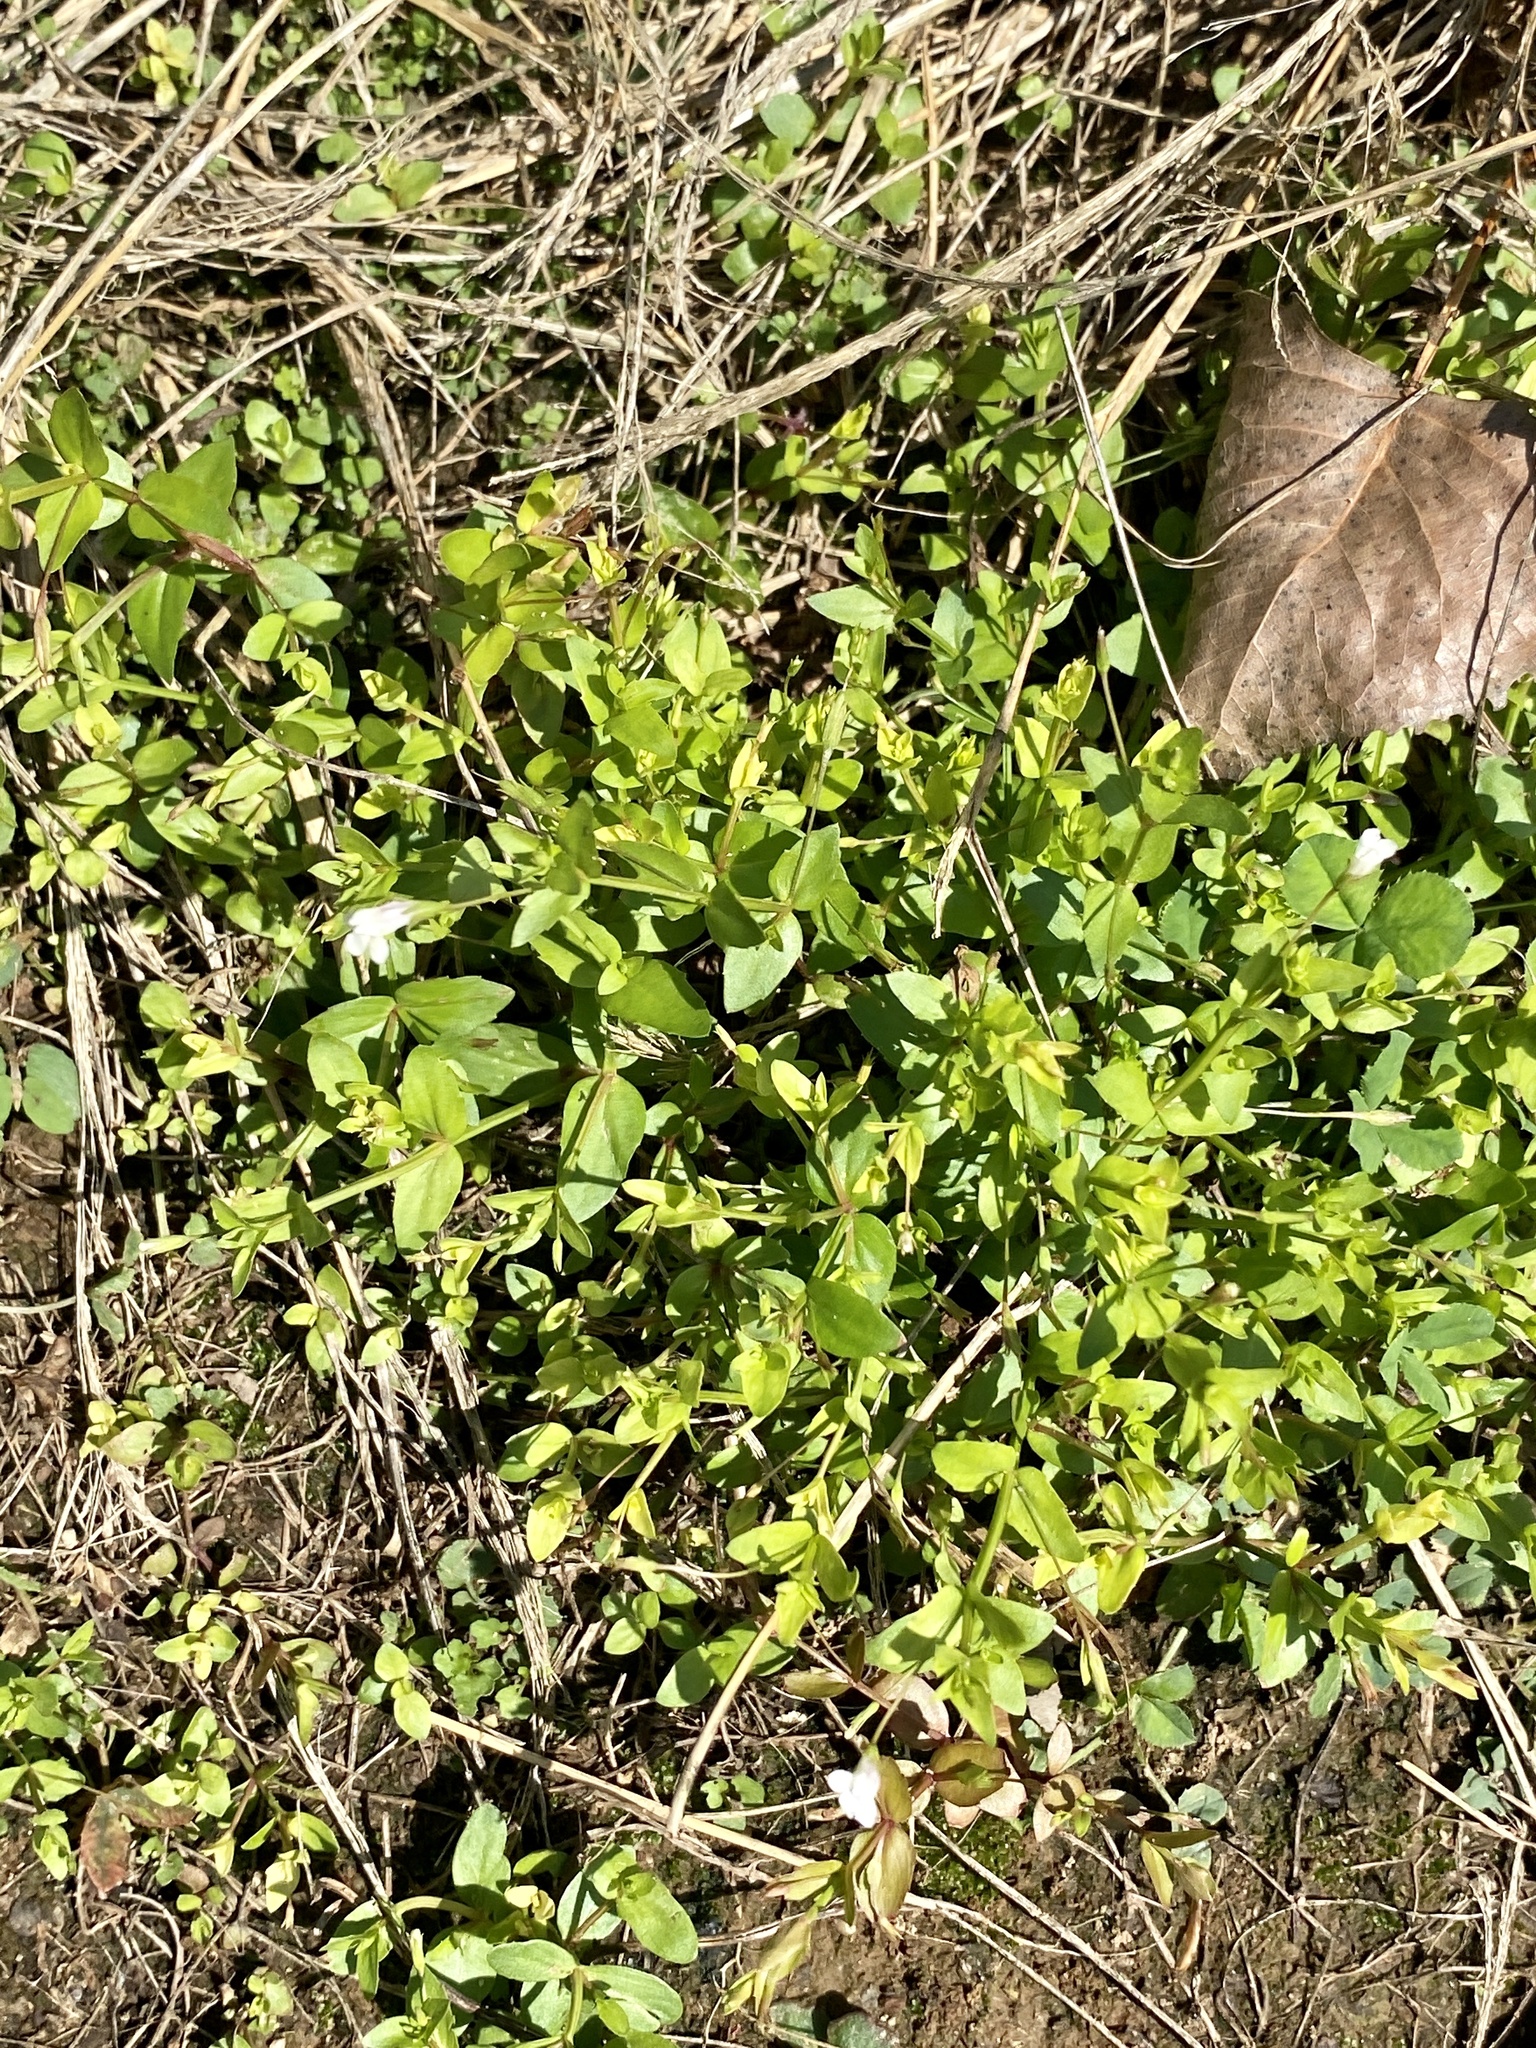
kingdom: Plantae
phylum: Tracheophyta
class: Magnoliopsida
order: Lamiales
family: Linderniaceae
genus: Lindernia
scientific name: Lindernia dubia
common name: Annual false pimpernel
